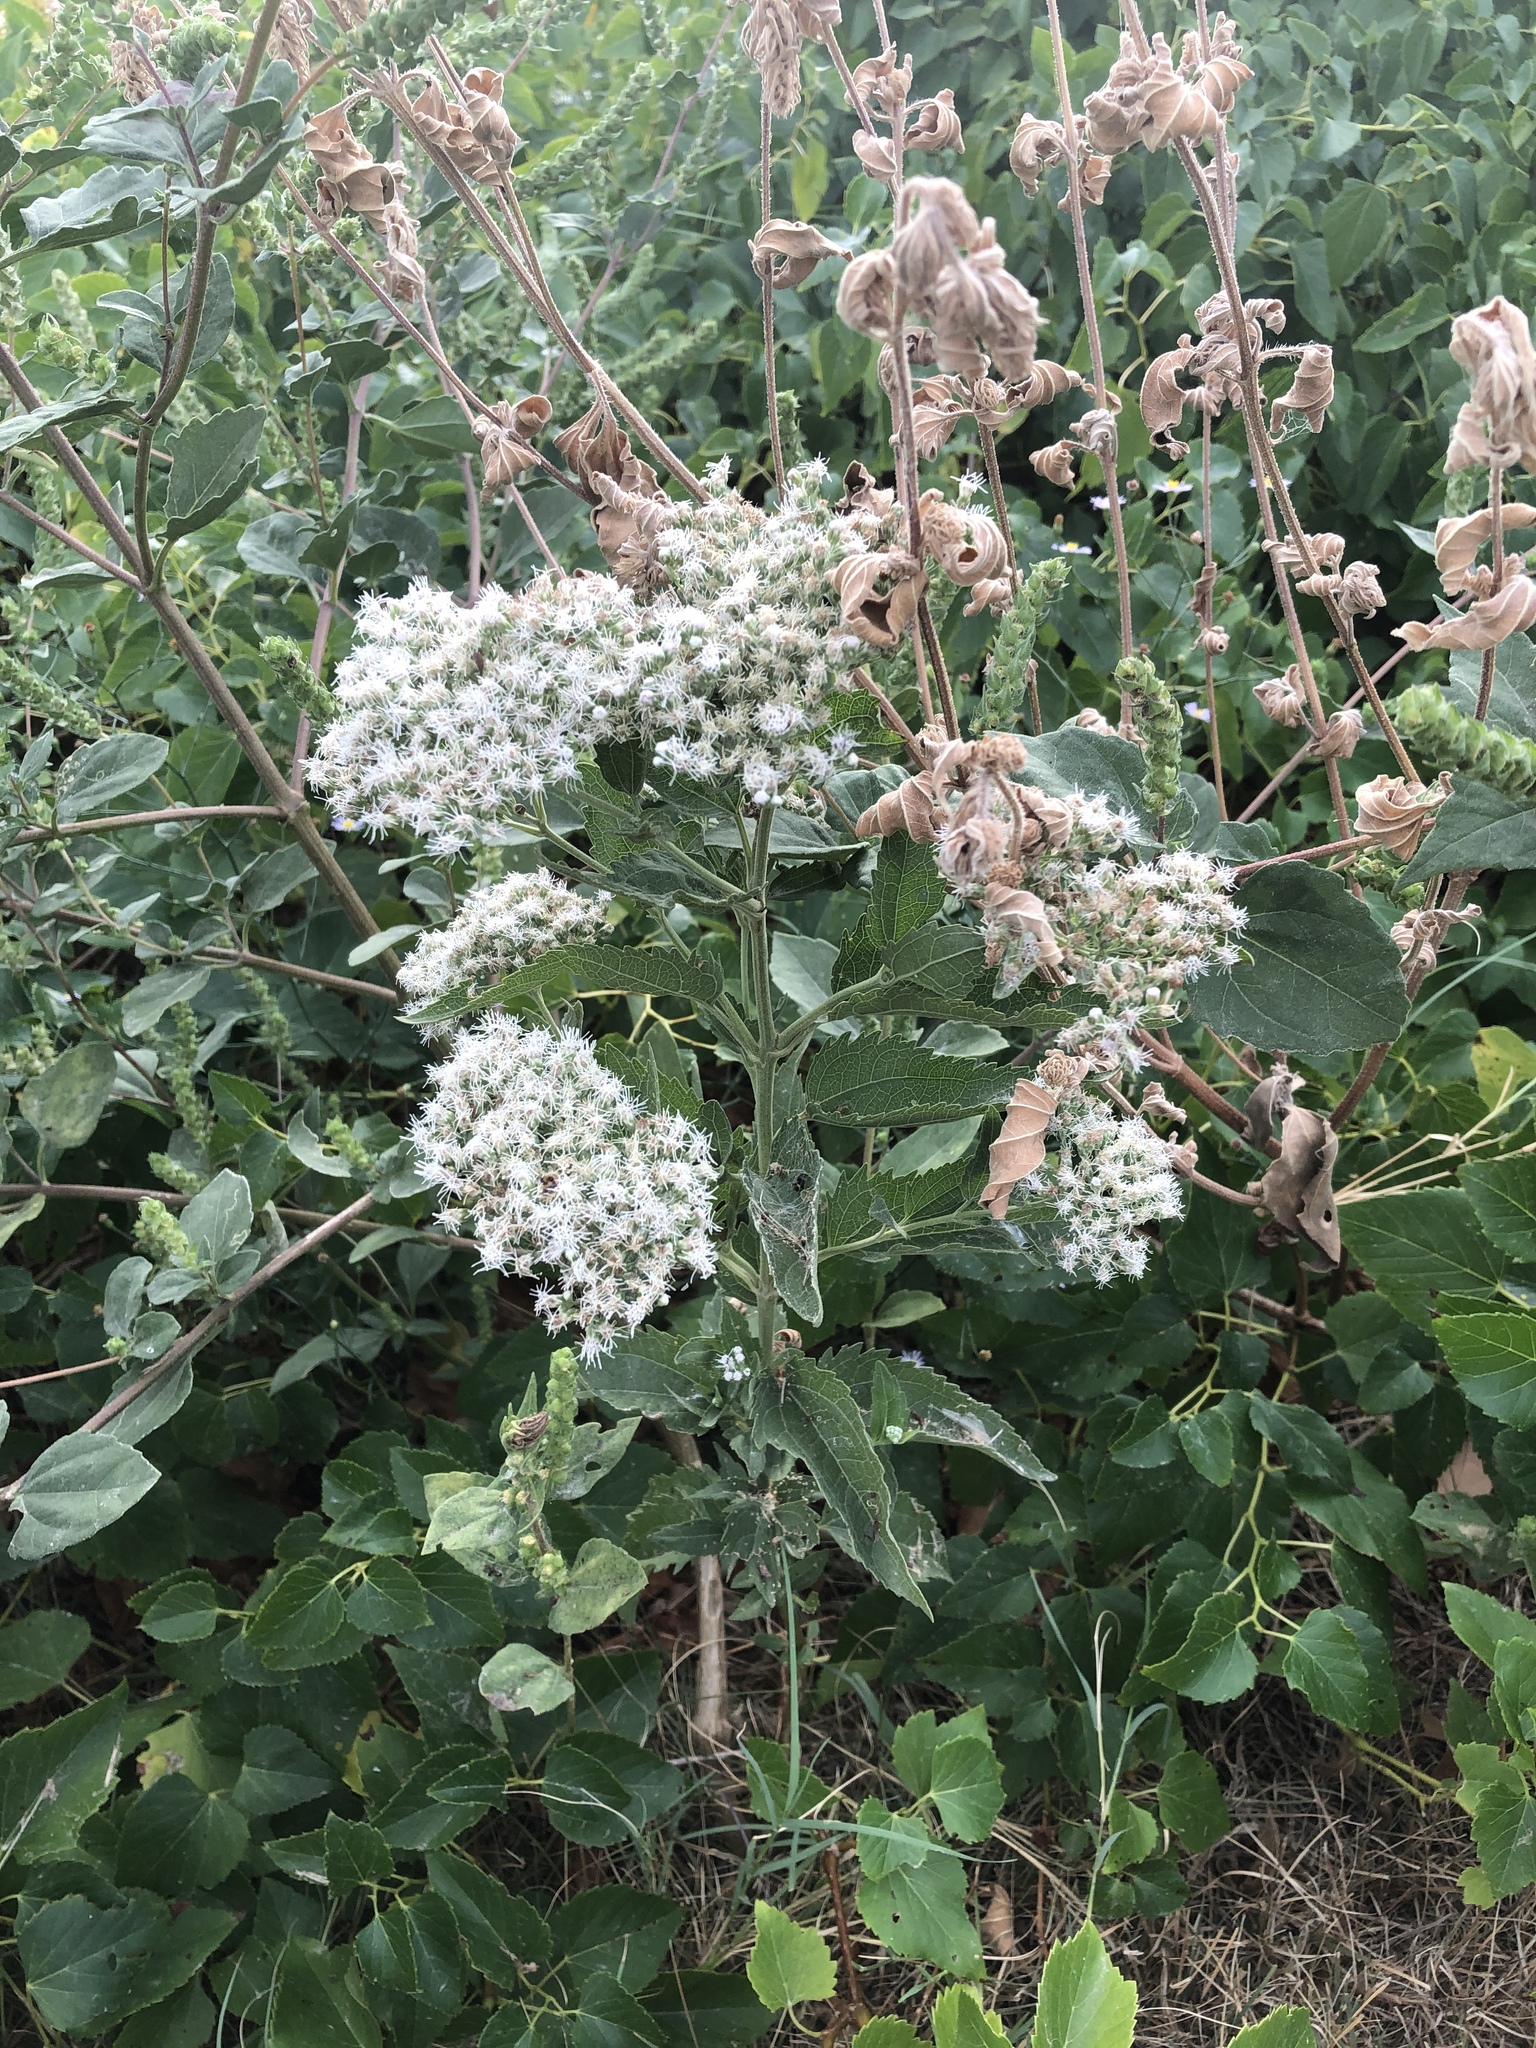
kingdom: Plantae
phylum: Tracheophyta
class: Magnoliopsida
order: Asterales
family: Asteraceae
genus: Eupatorium
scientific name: Eupatorium serotinum
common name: Late boneset
